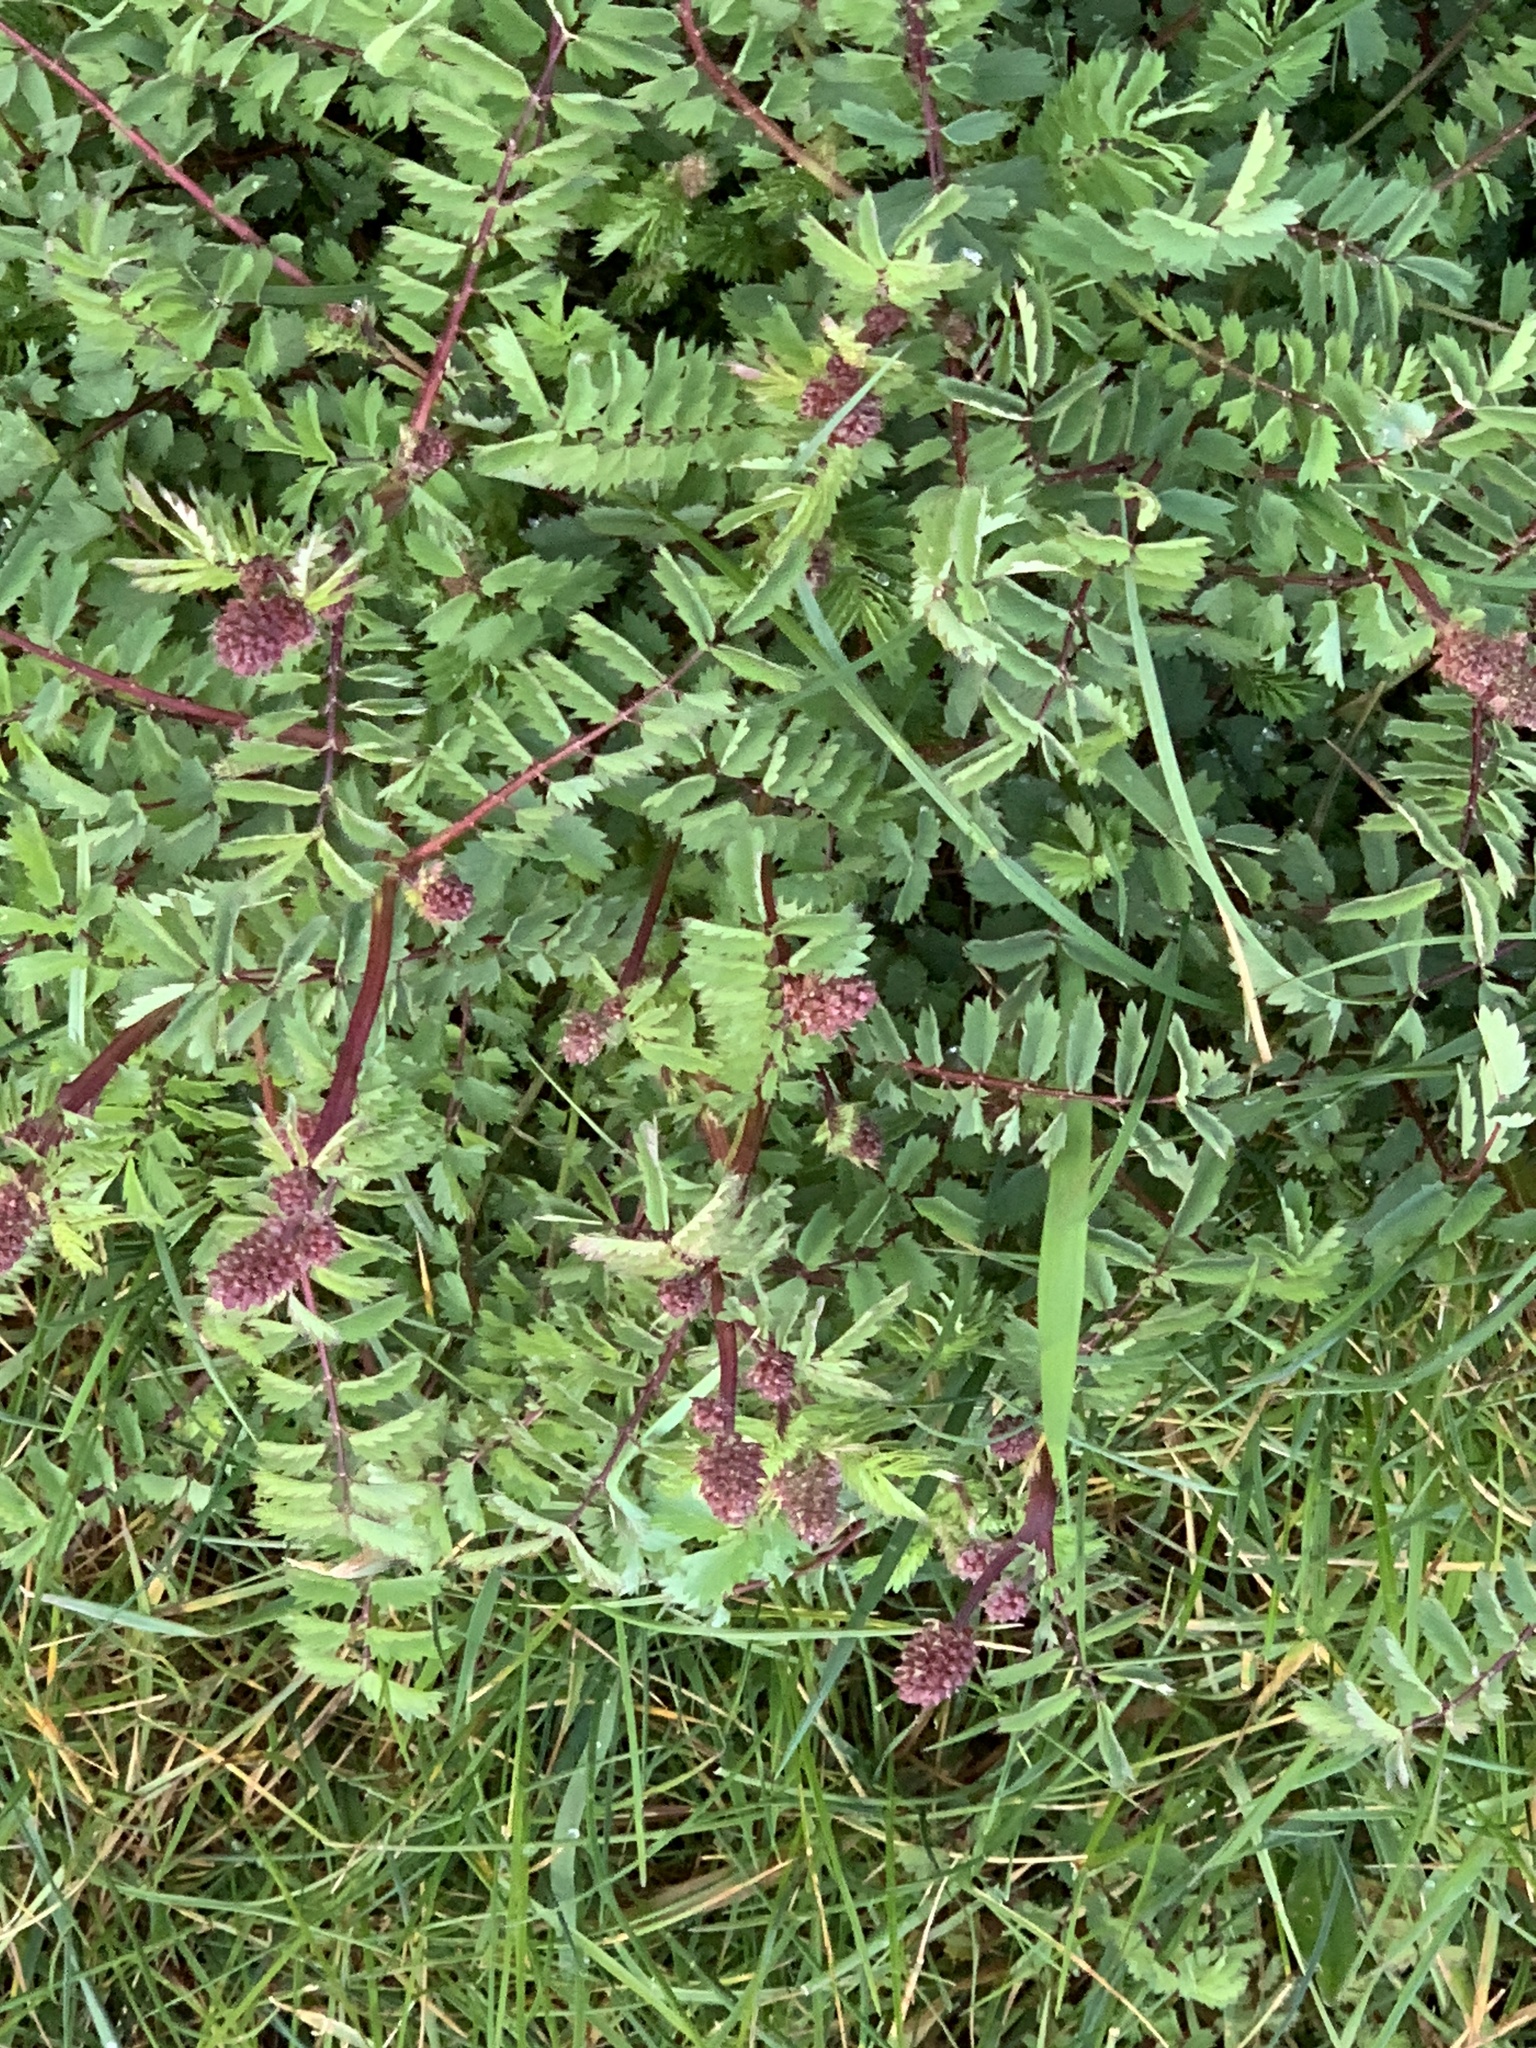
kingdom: Plantae
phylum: Tracheophyta
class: Magnoliopsida
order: Rosales
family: Rosaceae
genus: Poterium
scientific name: Poterium sanguisorba
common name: Salad burnet
